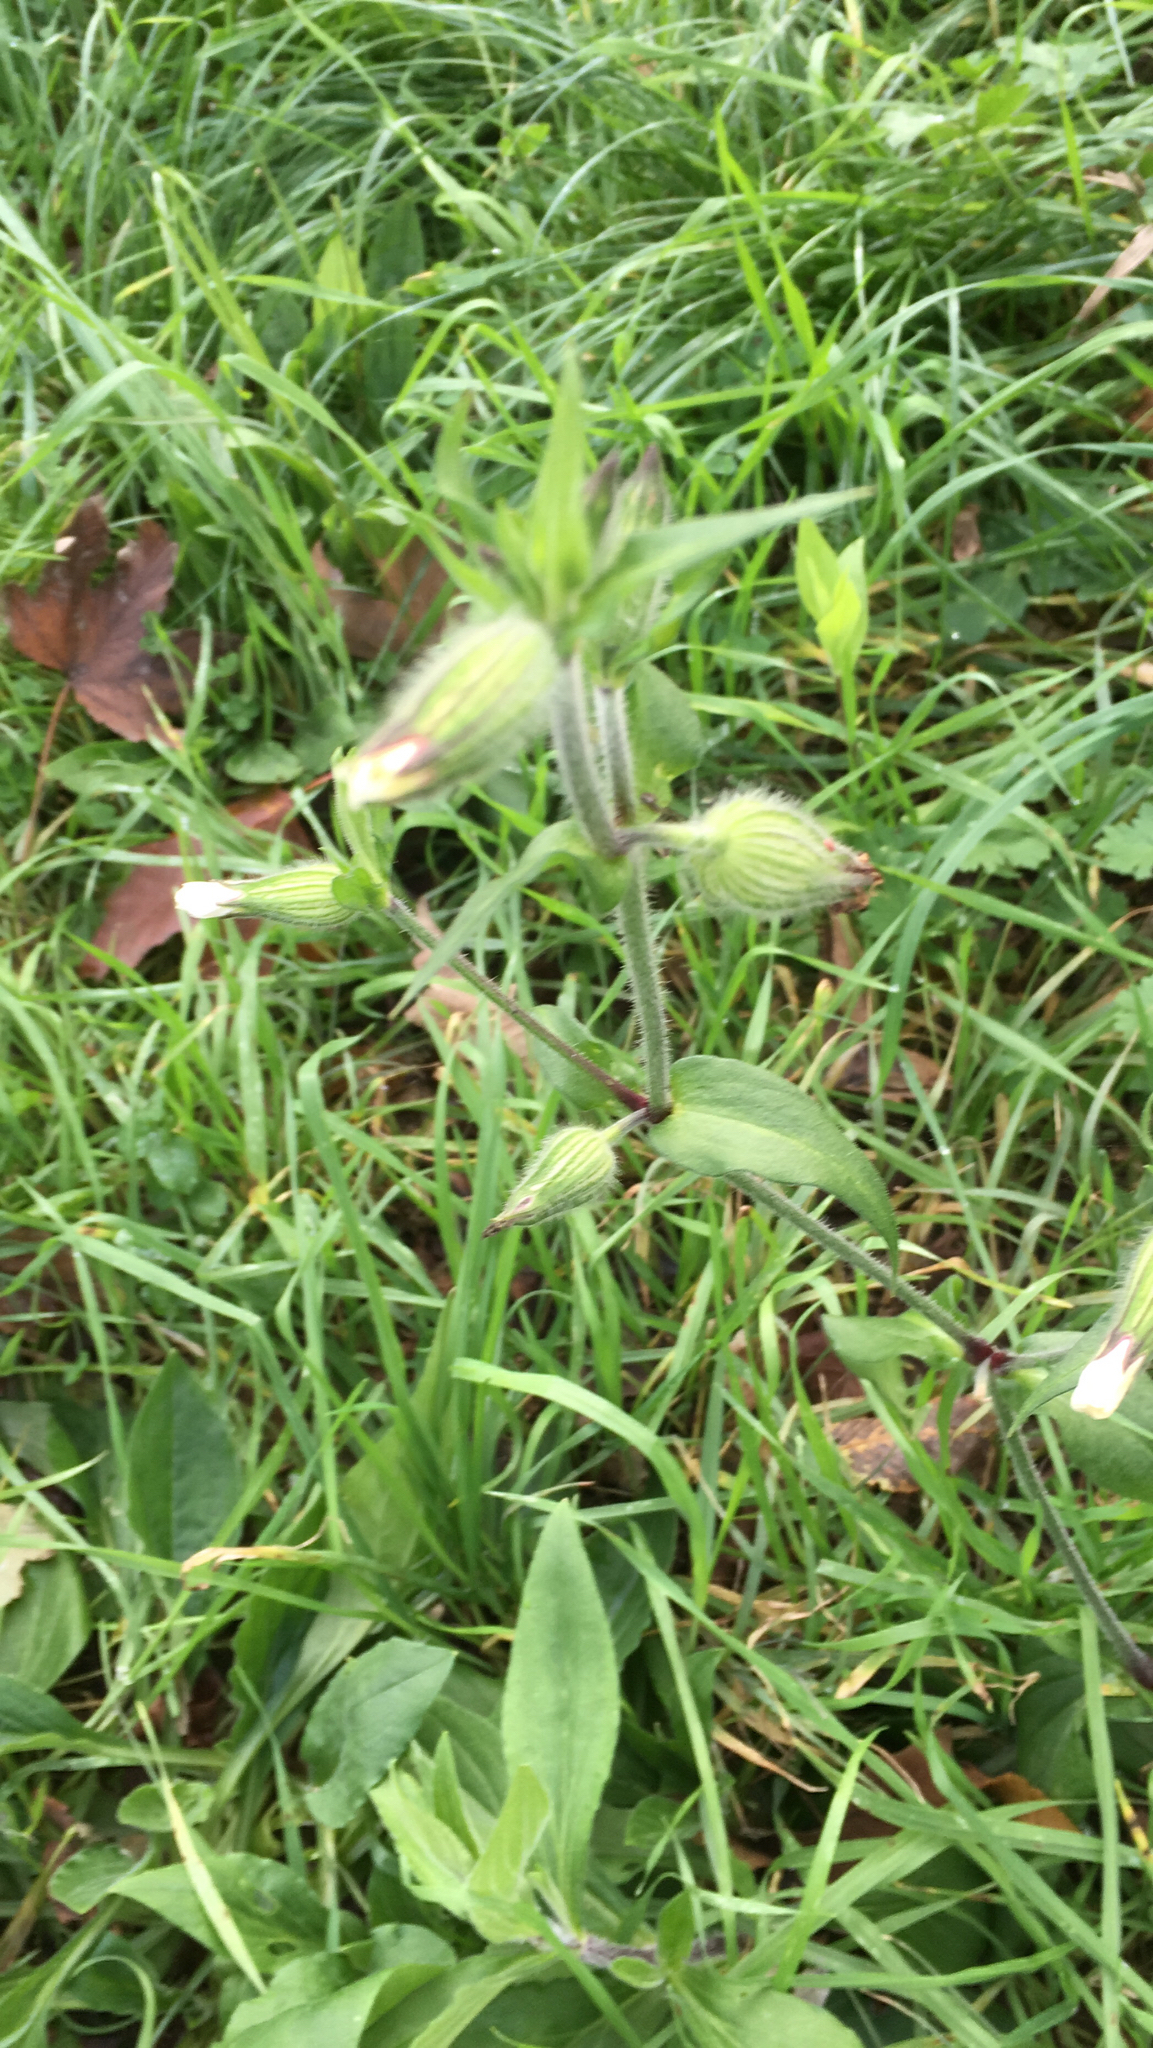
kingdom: Plantae
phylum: Tracheophyta
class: Magnoliopsida
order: Caryophyllales
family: Caryophyllaceae
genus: Silene
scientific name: Silene latifolia
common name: White campion
